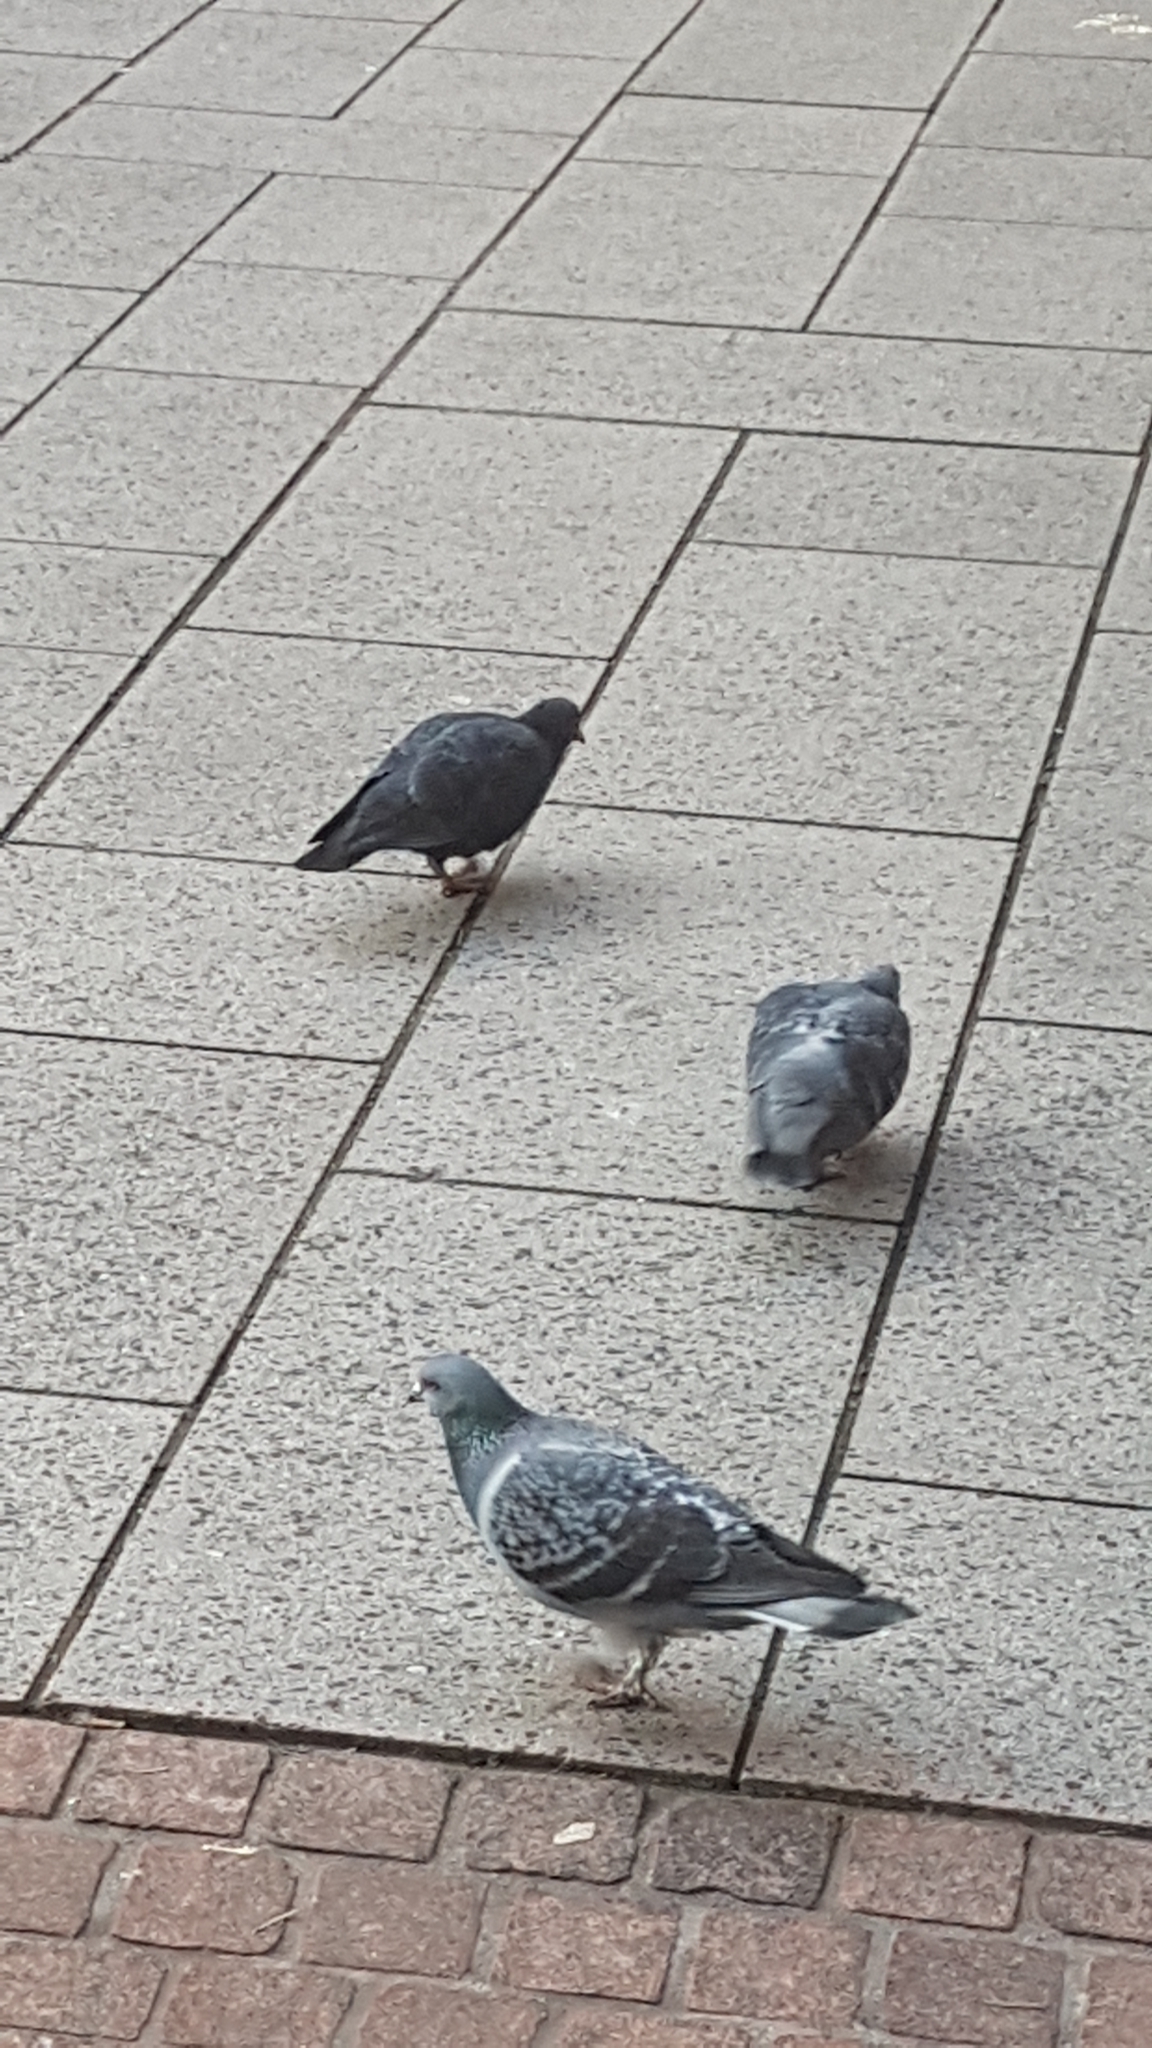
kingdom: Animalia
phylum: Chordata
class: Aves
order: Columbiformes
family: Columbidae
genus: Columba
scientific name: Columba livia
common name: Rock pigeon
